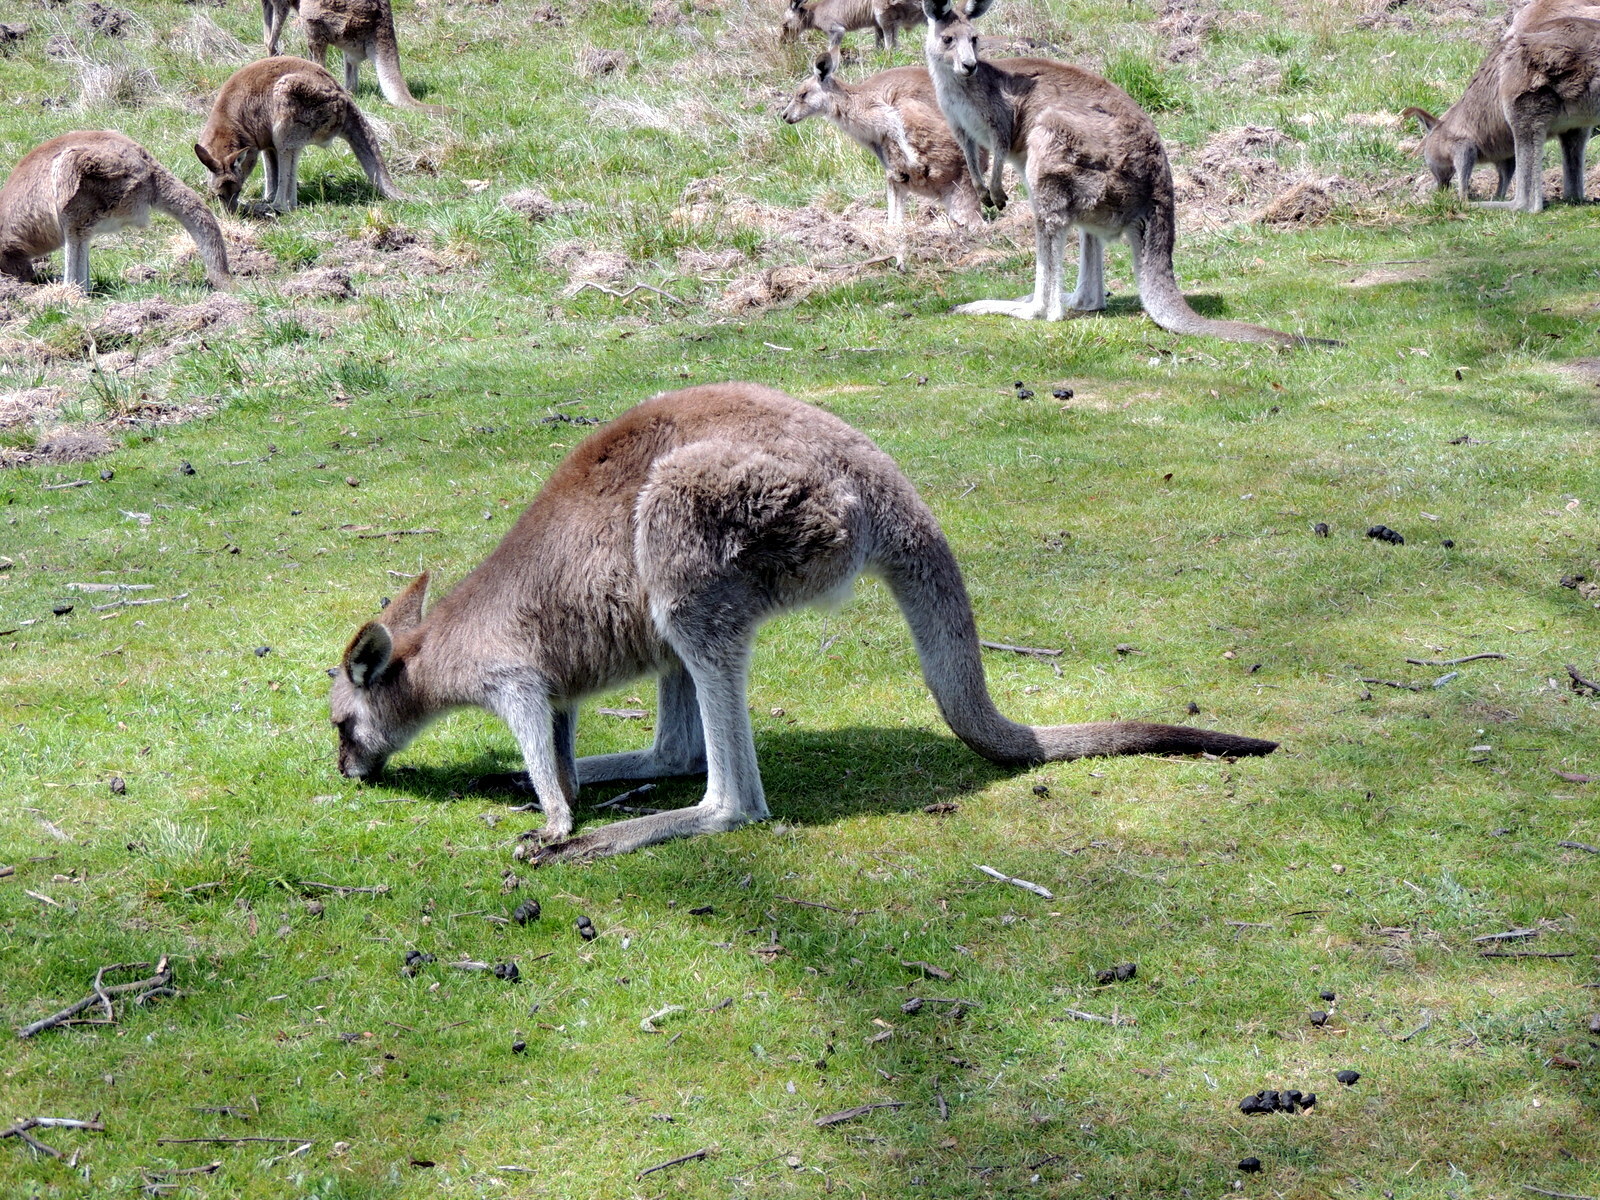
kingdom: Animalia
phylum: Chordata
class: Mammalia
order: Diprotodontia
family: Macropodidae
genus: Macropus
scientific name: Macropus giganteus
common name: Eastern grey kangaroo
